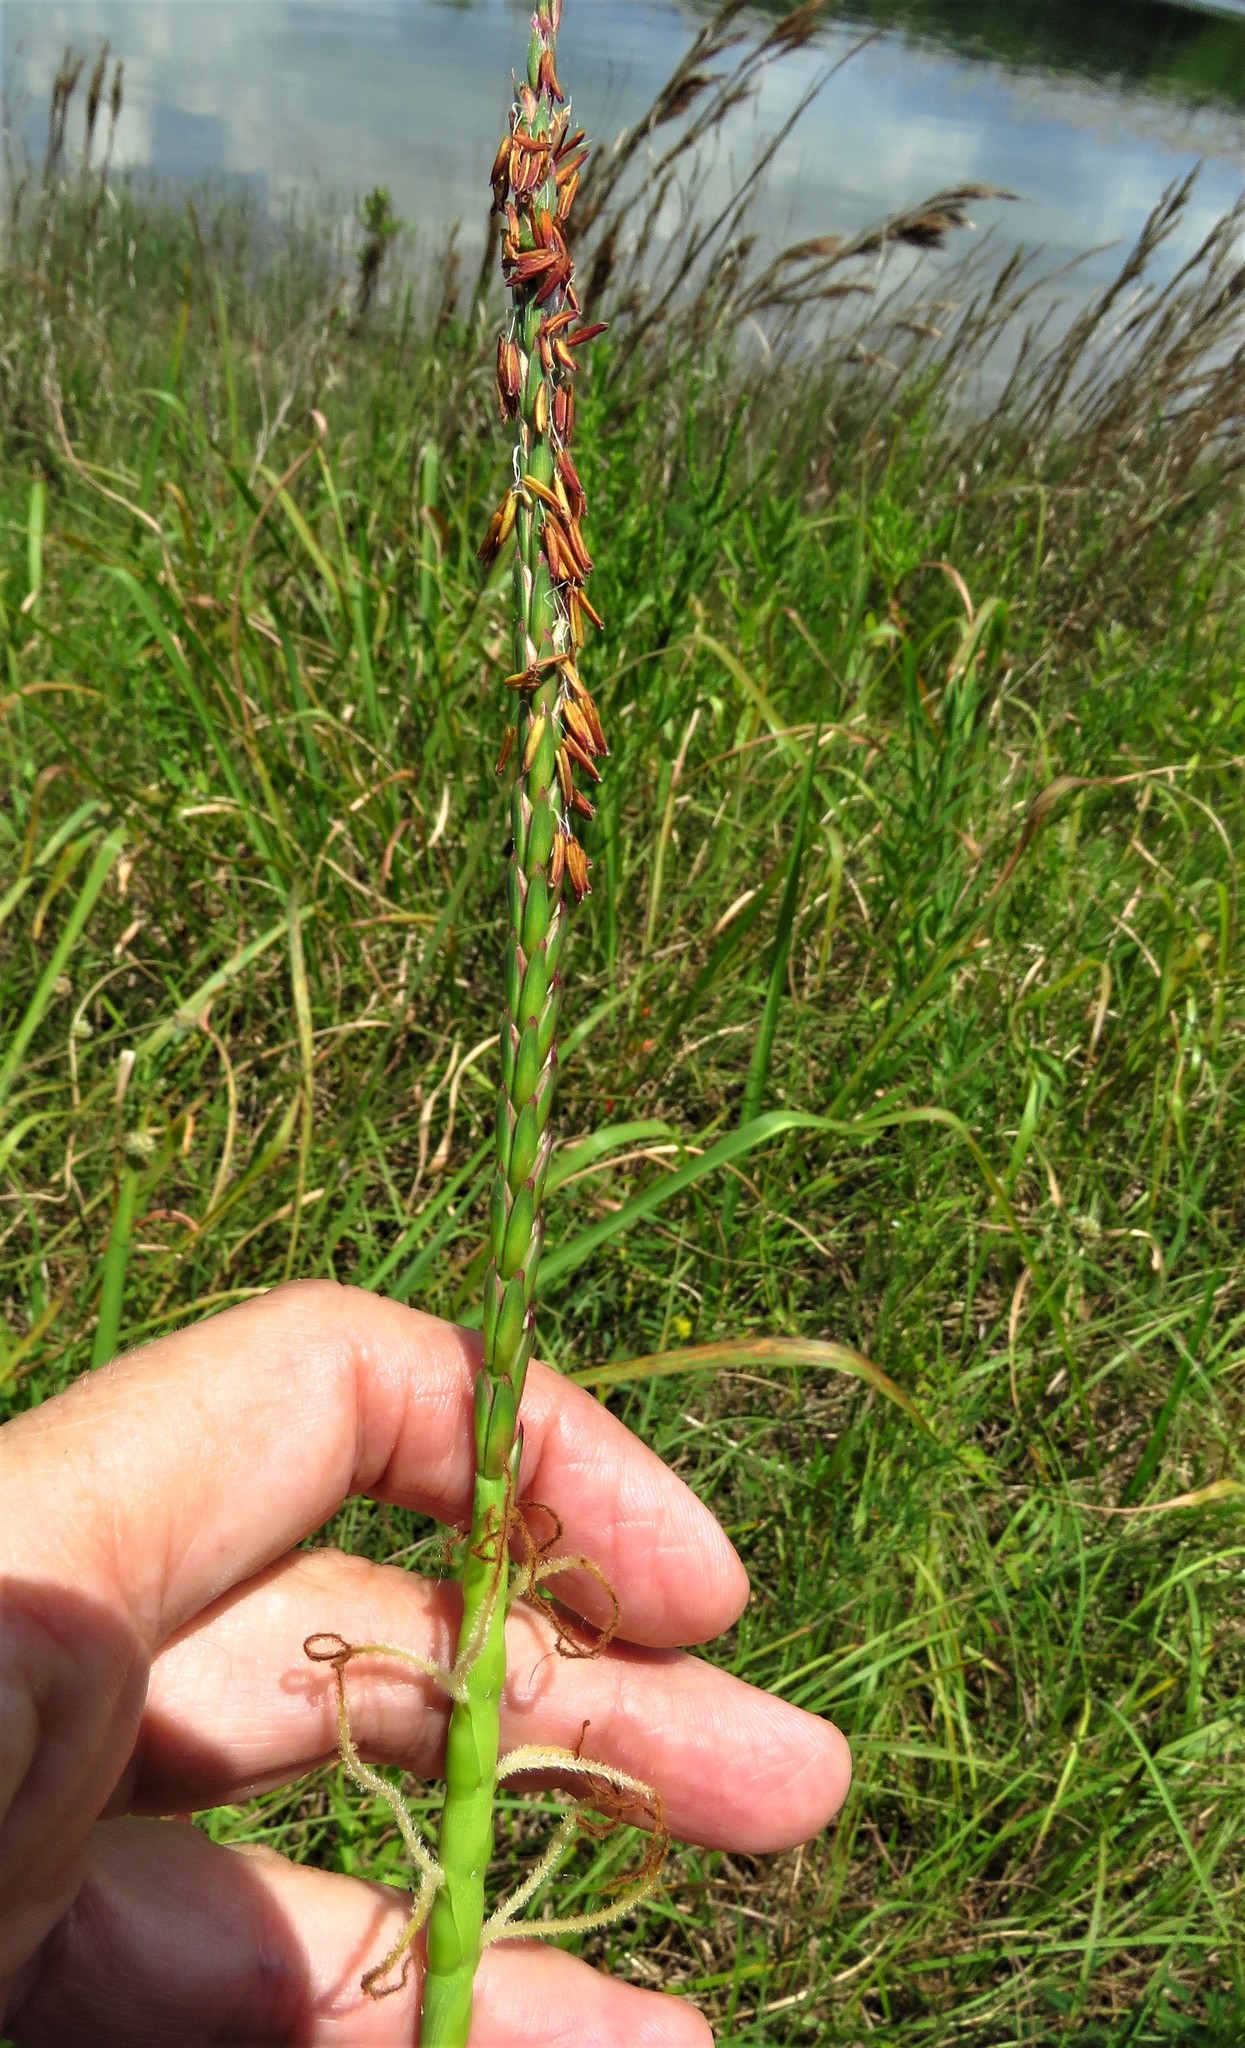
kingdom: Plantae
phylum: Tracheophyta
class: Liliopsida
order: Poales
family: Poaceae
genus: Tripsacum
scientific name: Tripsacum dactyloides
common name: Buffalo-grass
